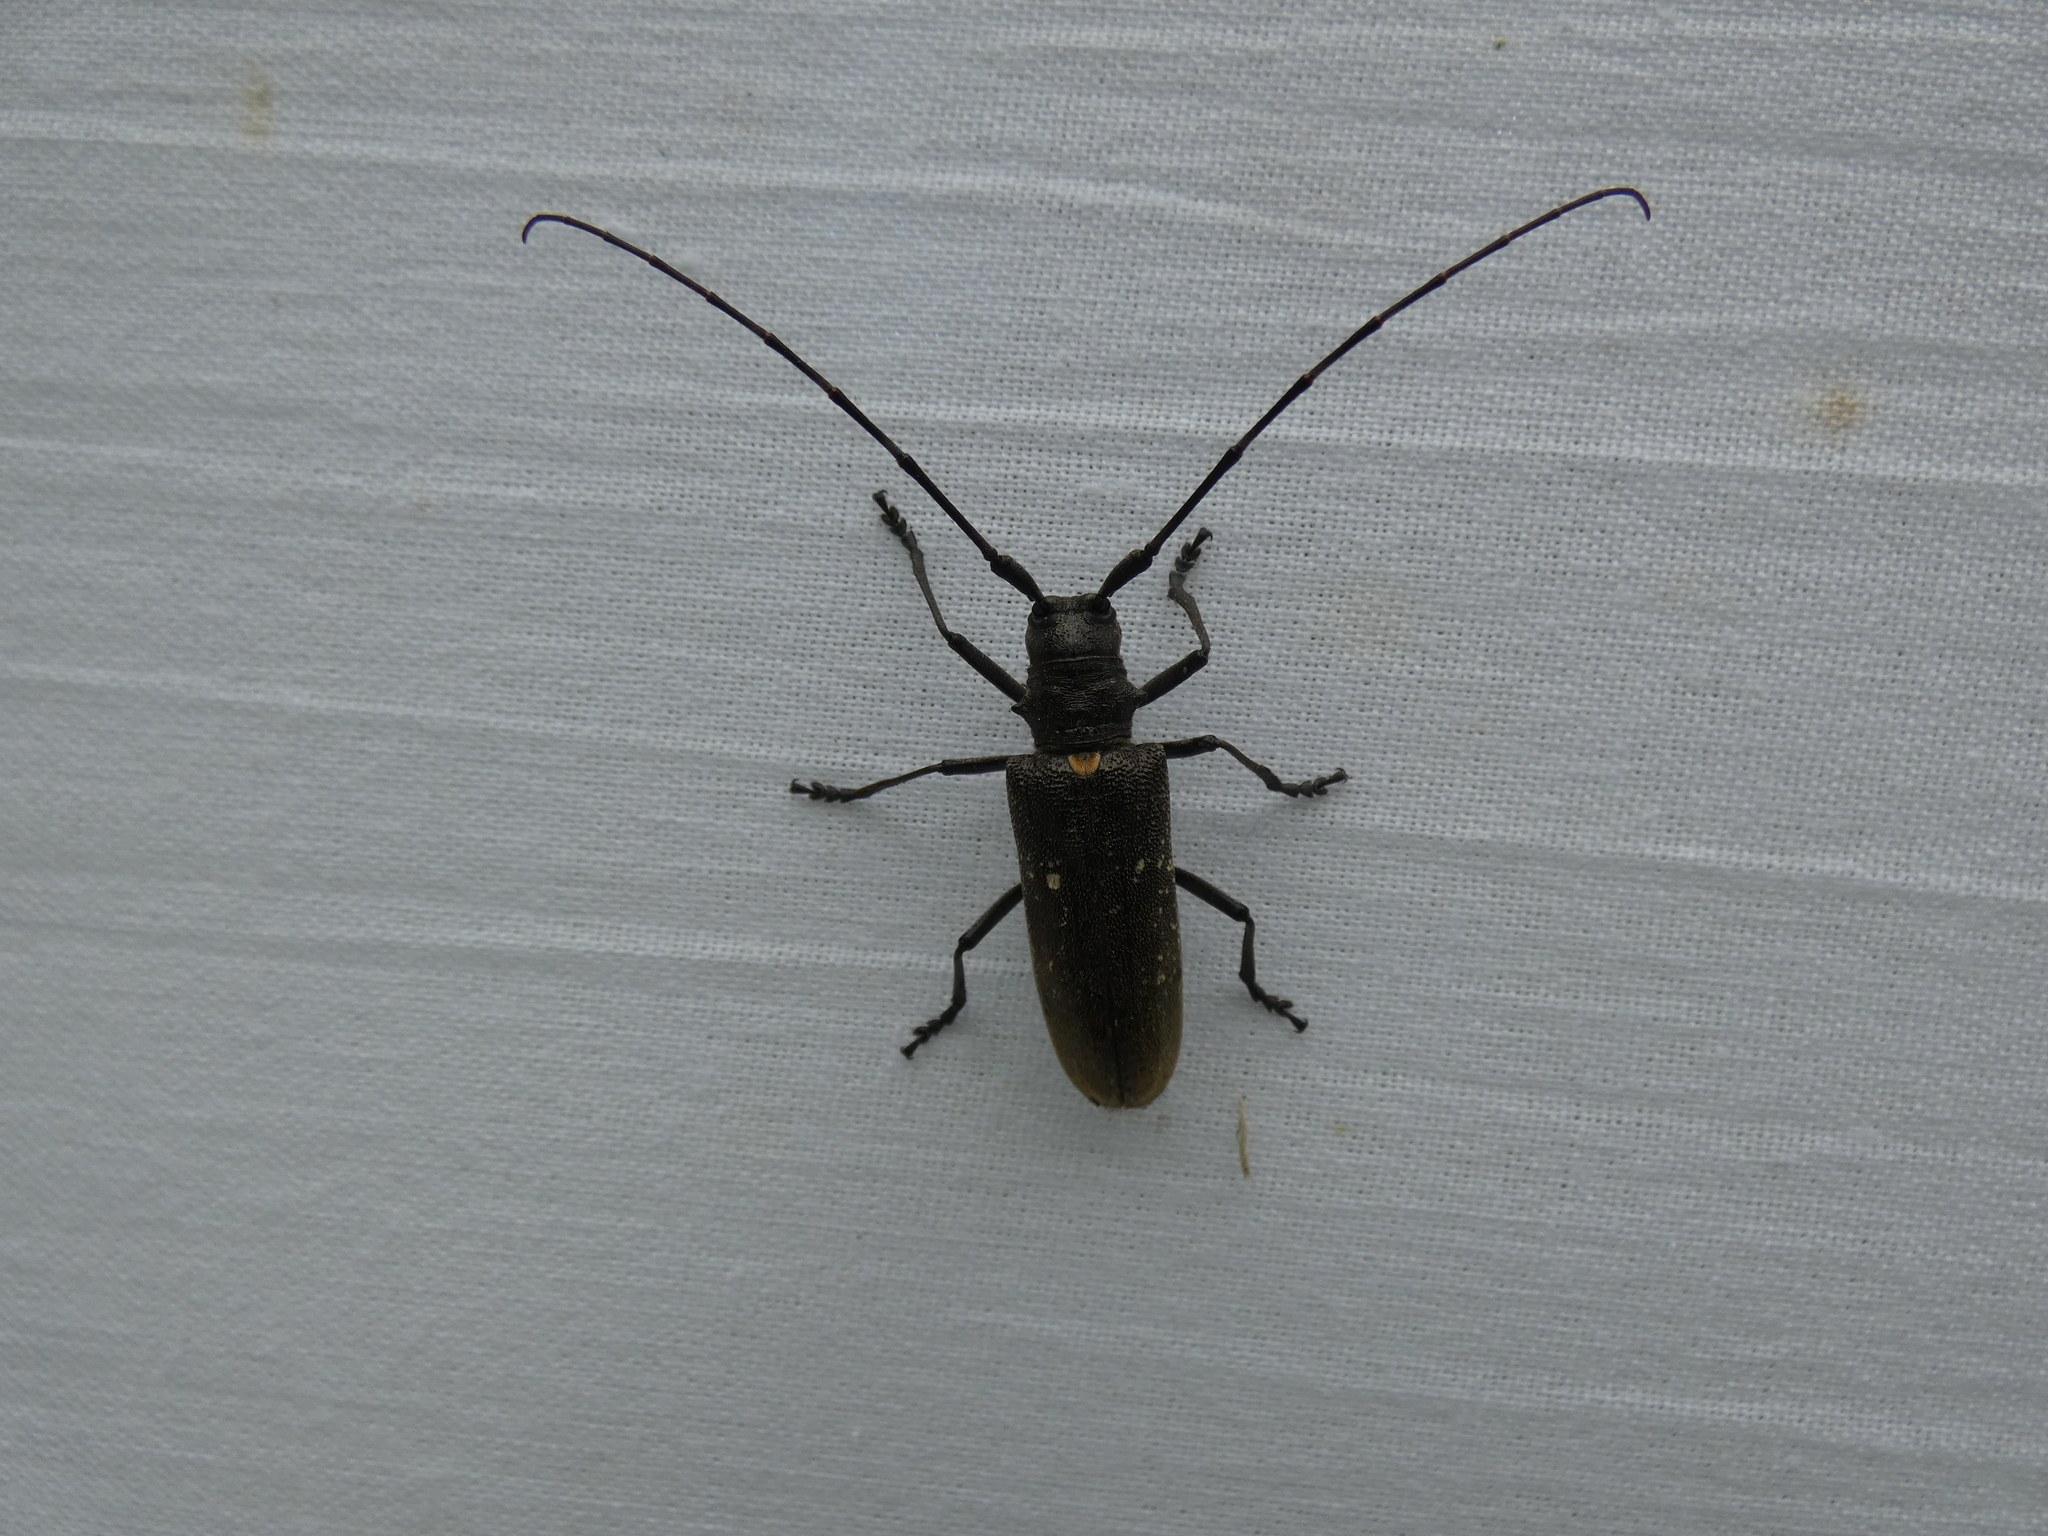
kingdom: Animalia
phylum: Arthropoda
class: Insecta
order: Coleoptera
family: Cerambycidae
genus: Monochamus
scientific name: Monochamus sartor
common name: Pine sawyer
